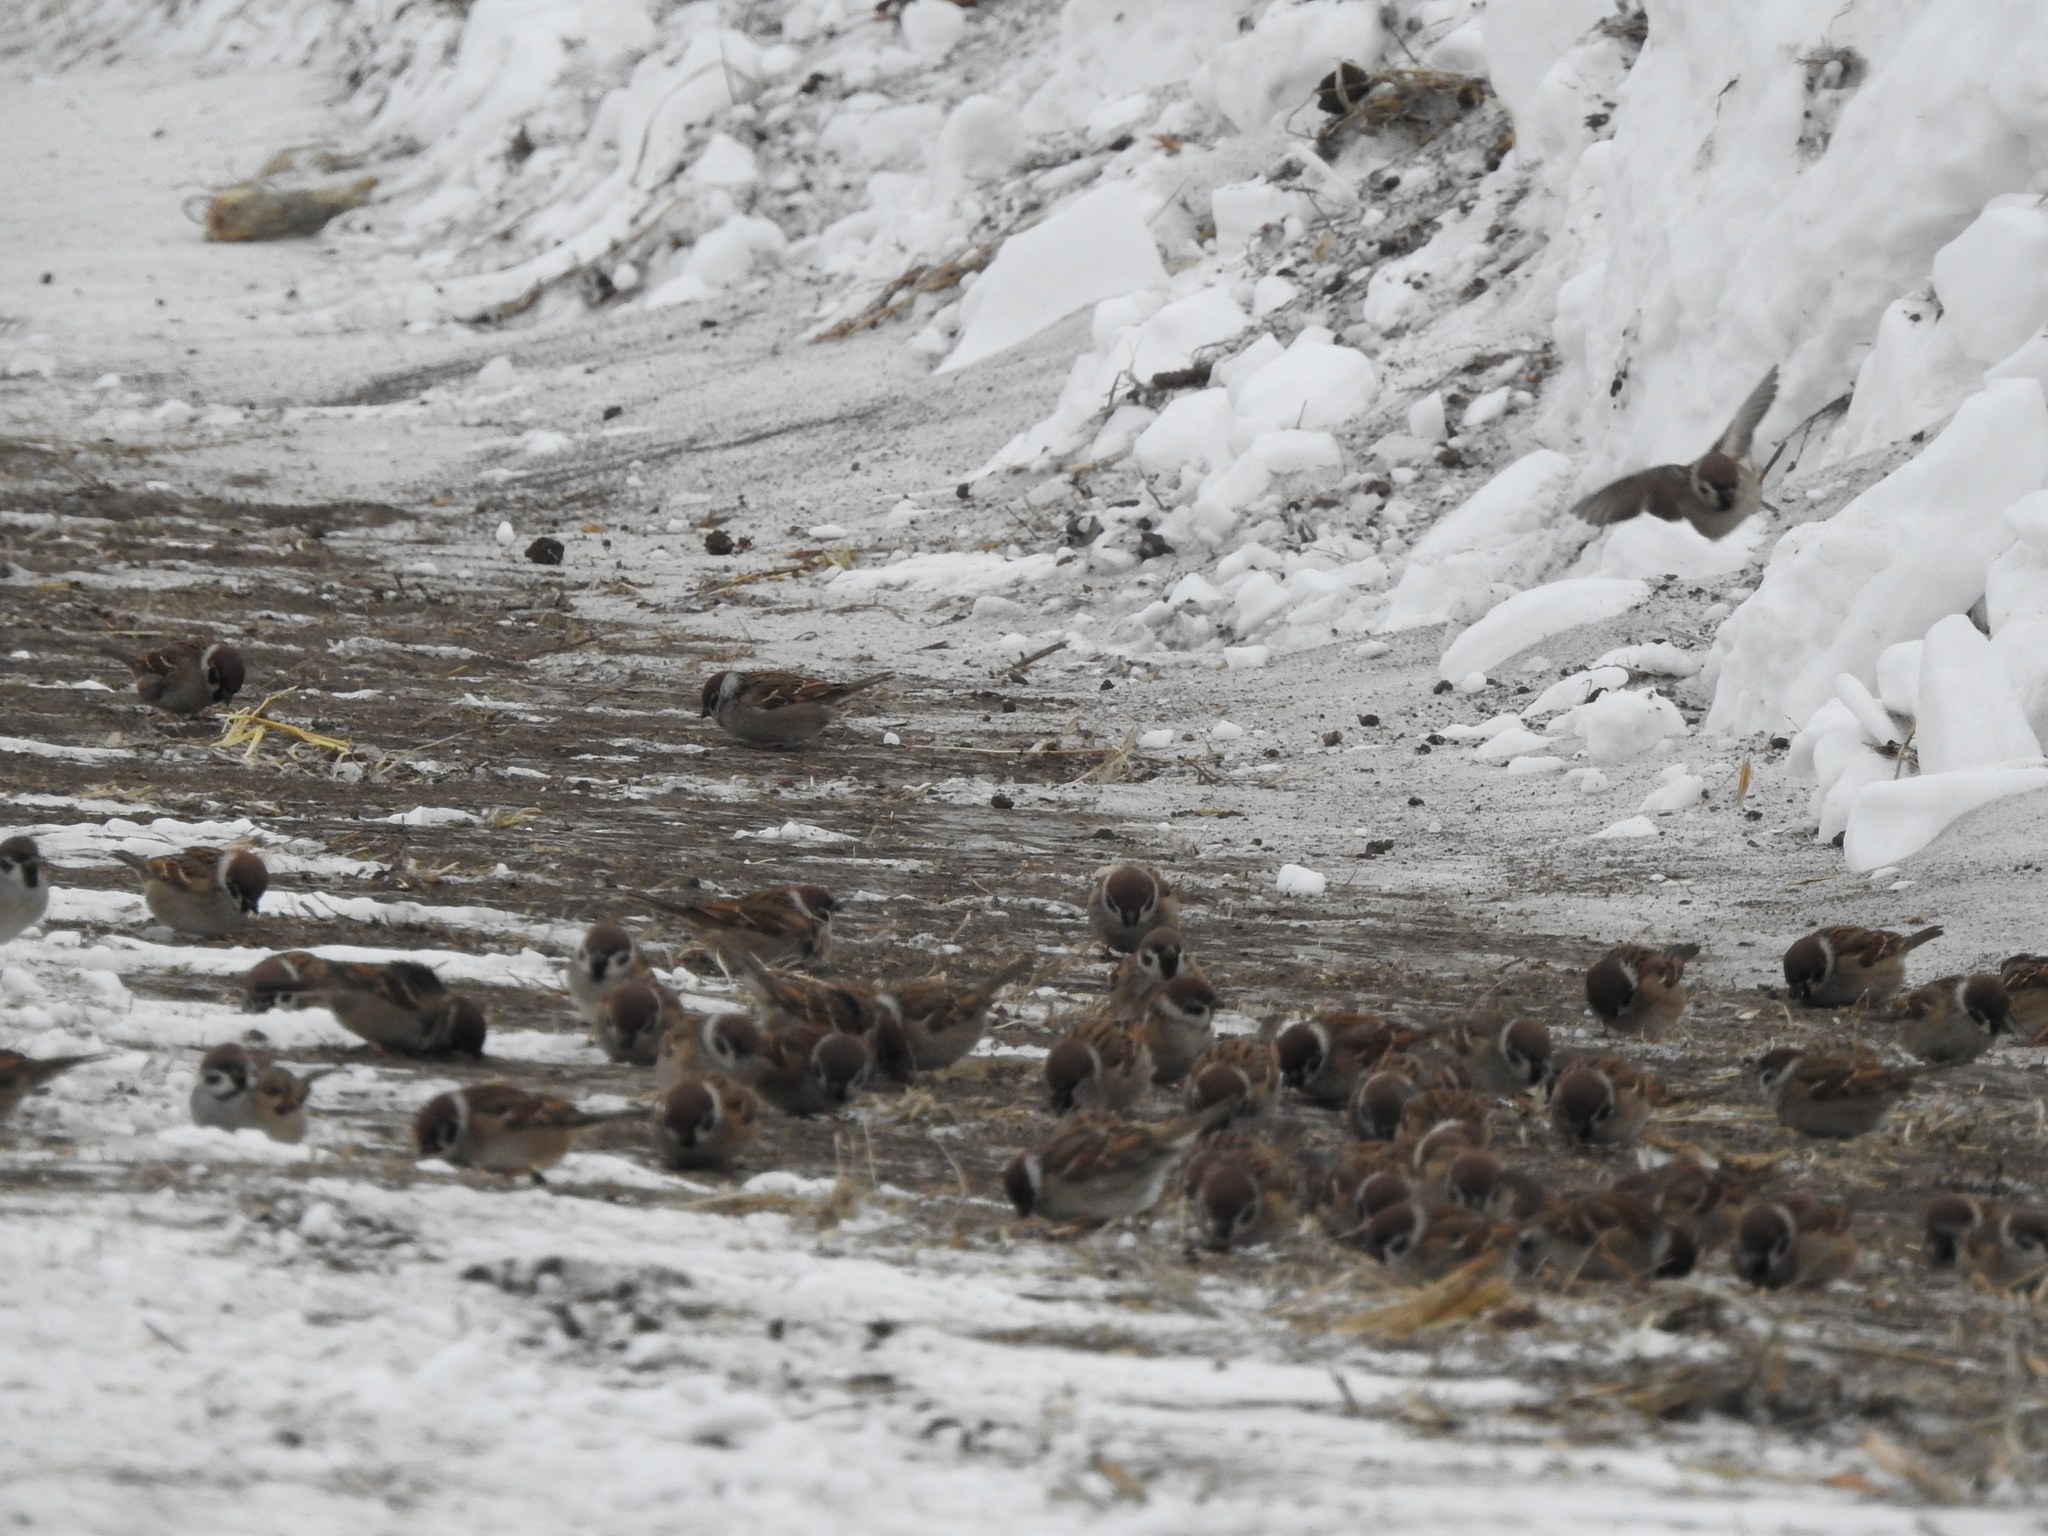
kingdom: Animalia
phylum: Chordata
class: Aves
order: Passeriformes
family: Passeridae
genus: Passer
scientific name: Passer montanus
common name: Eurasian tree sparrow
